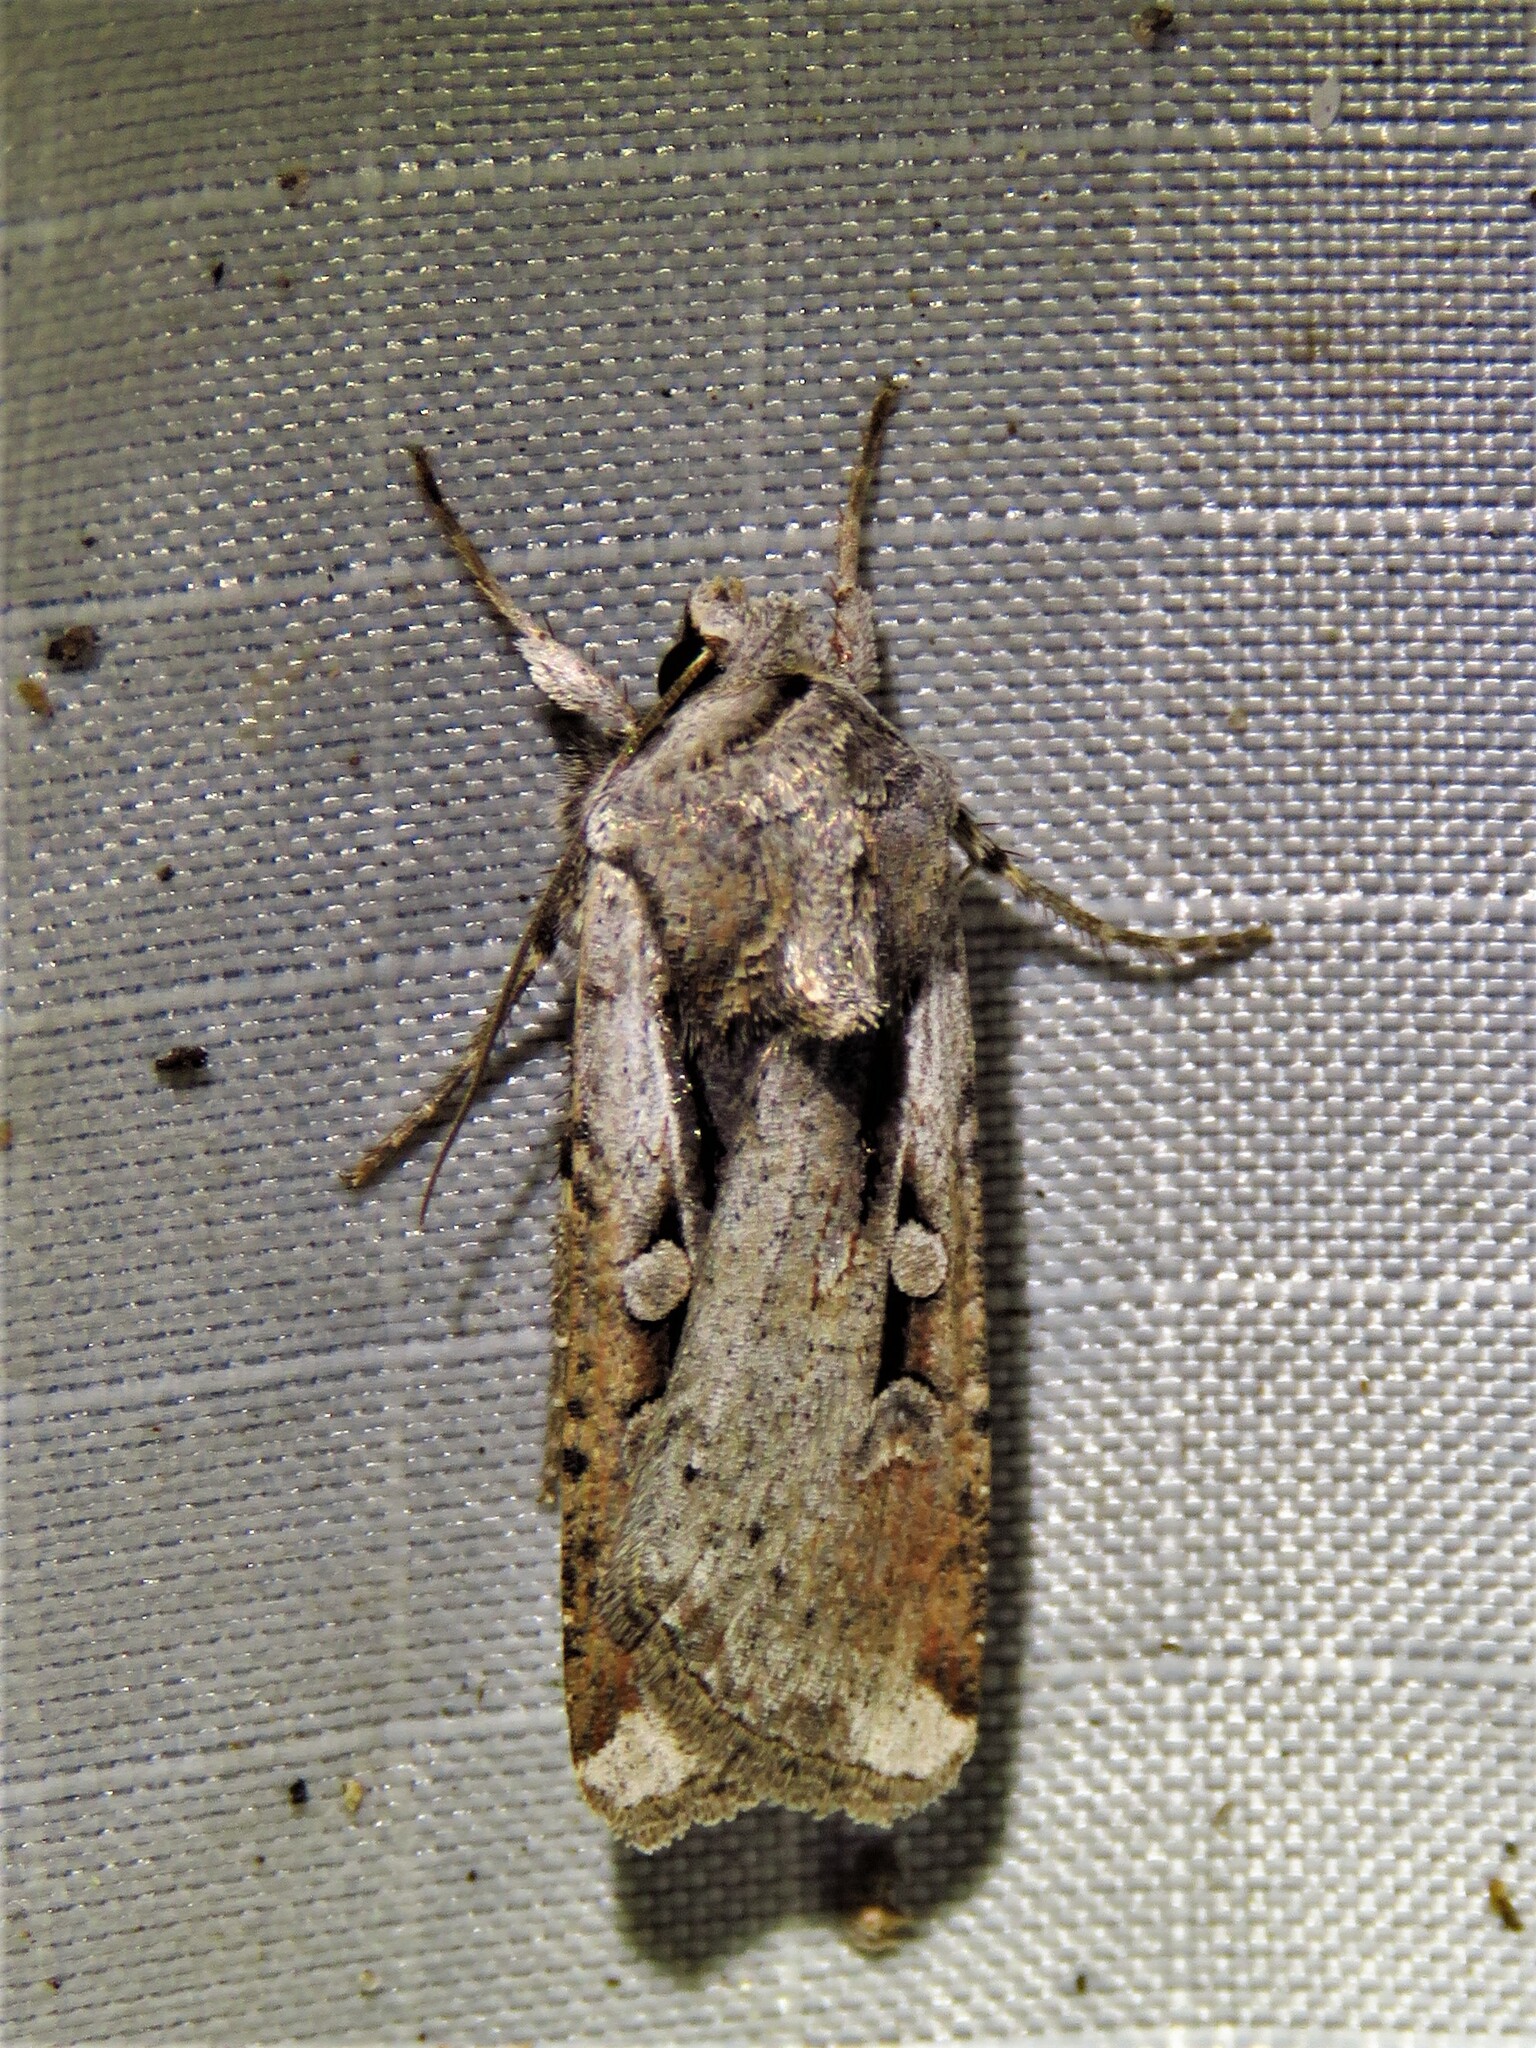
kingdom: Animalia
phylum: Arthropoda
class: Insecta
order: Lepidoptera
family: Noctuidae
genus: Hemieuxoa
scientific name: Hemieuxoa rudens
